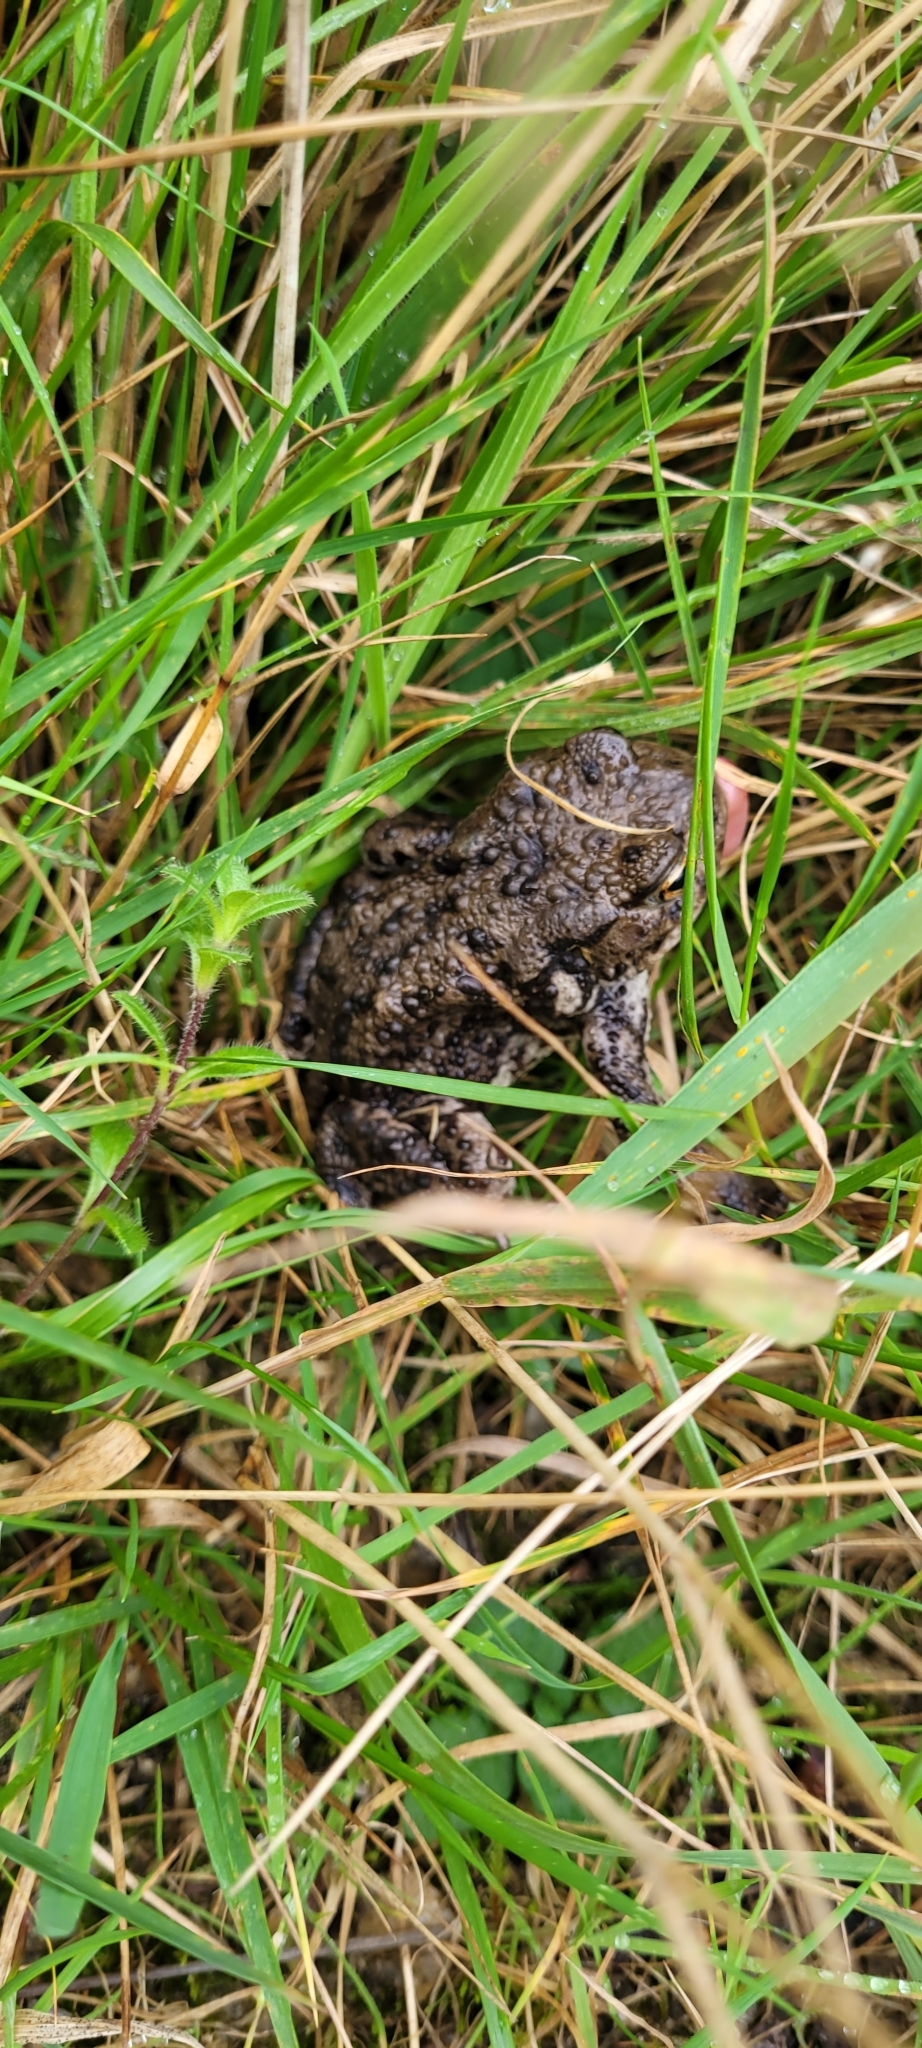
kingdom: Animalia
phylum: Chordata
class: Amphibia
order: Anura
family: Bufonidae
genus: Bufo
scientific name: Bufo bufo
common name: Common toad
